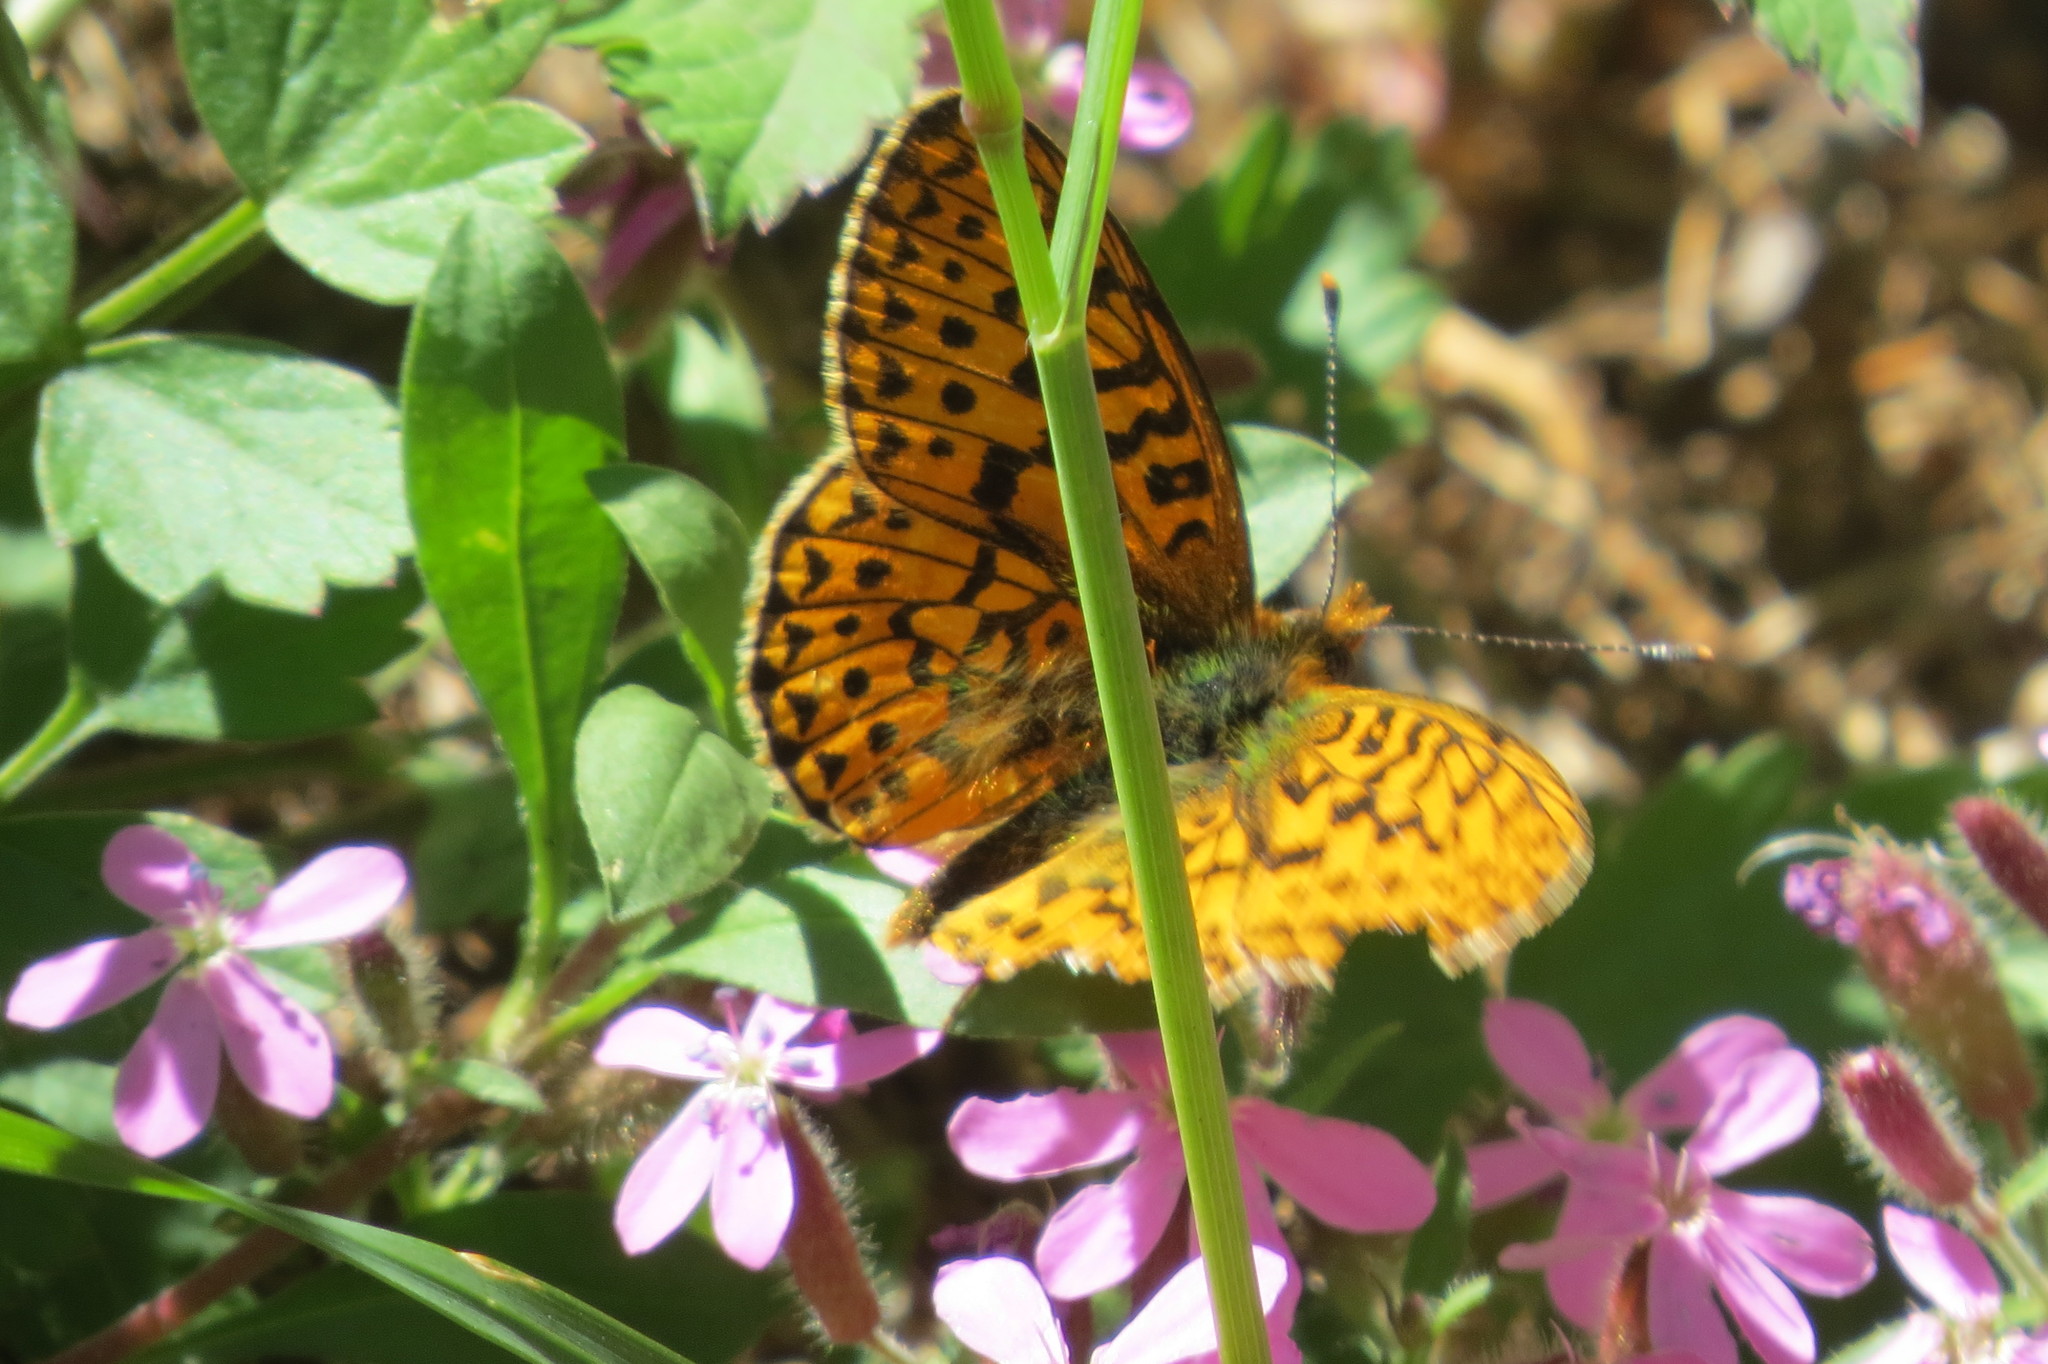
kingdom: Animalia
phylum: Arthropoda
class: Insecta
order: Lepidoptera
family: Nymphalidae
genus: Clossiana
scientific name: Clossiana euphrosyne
